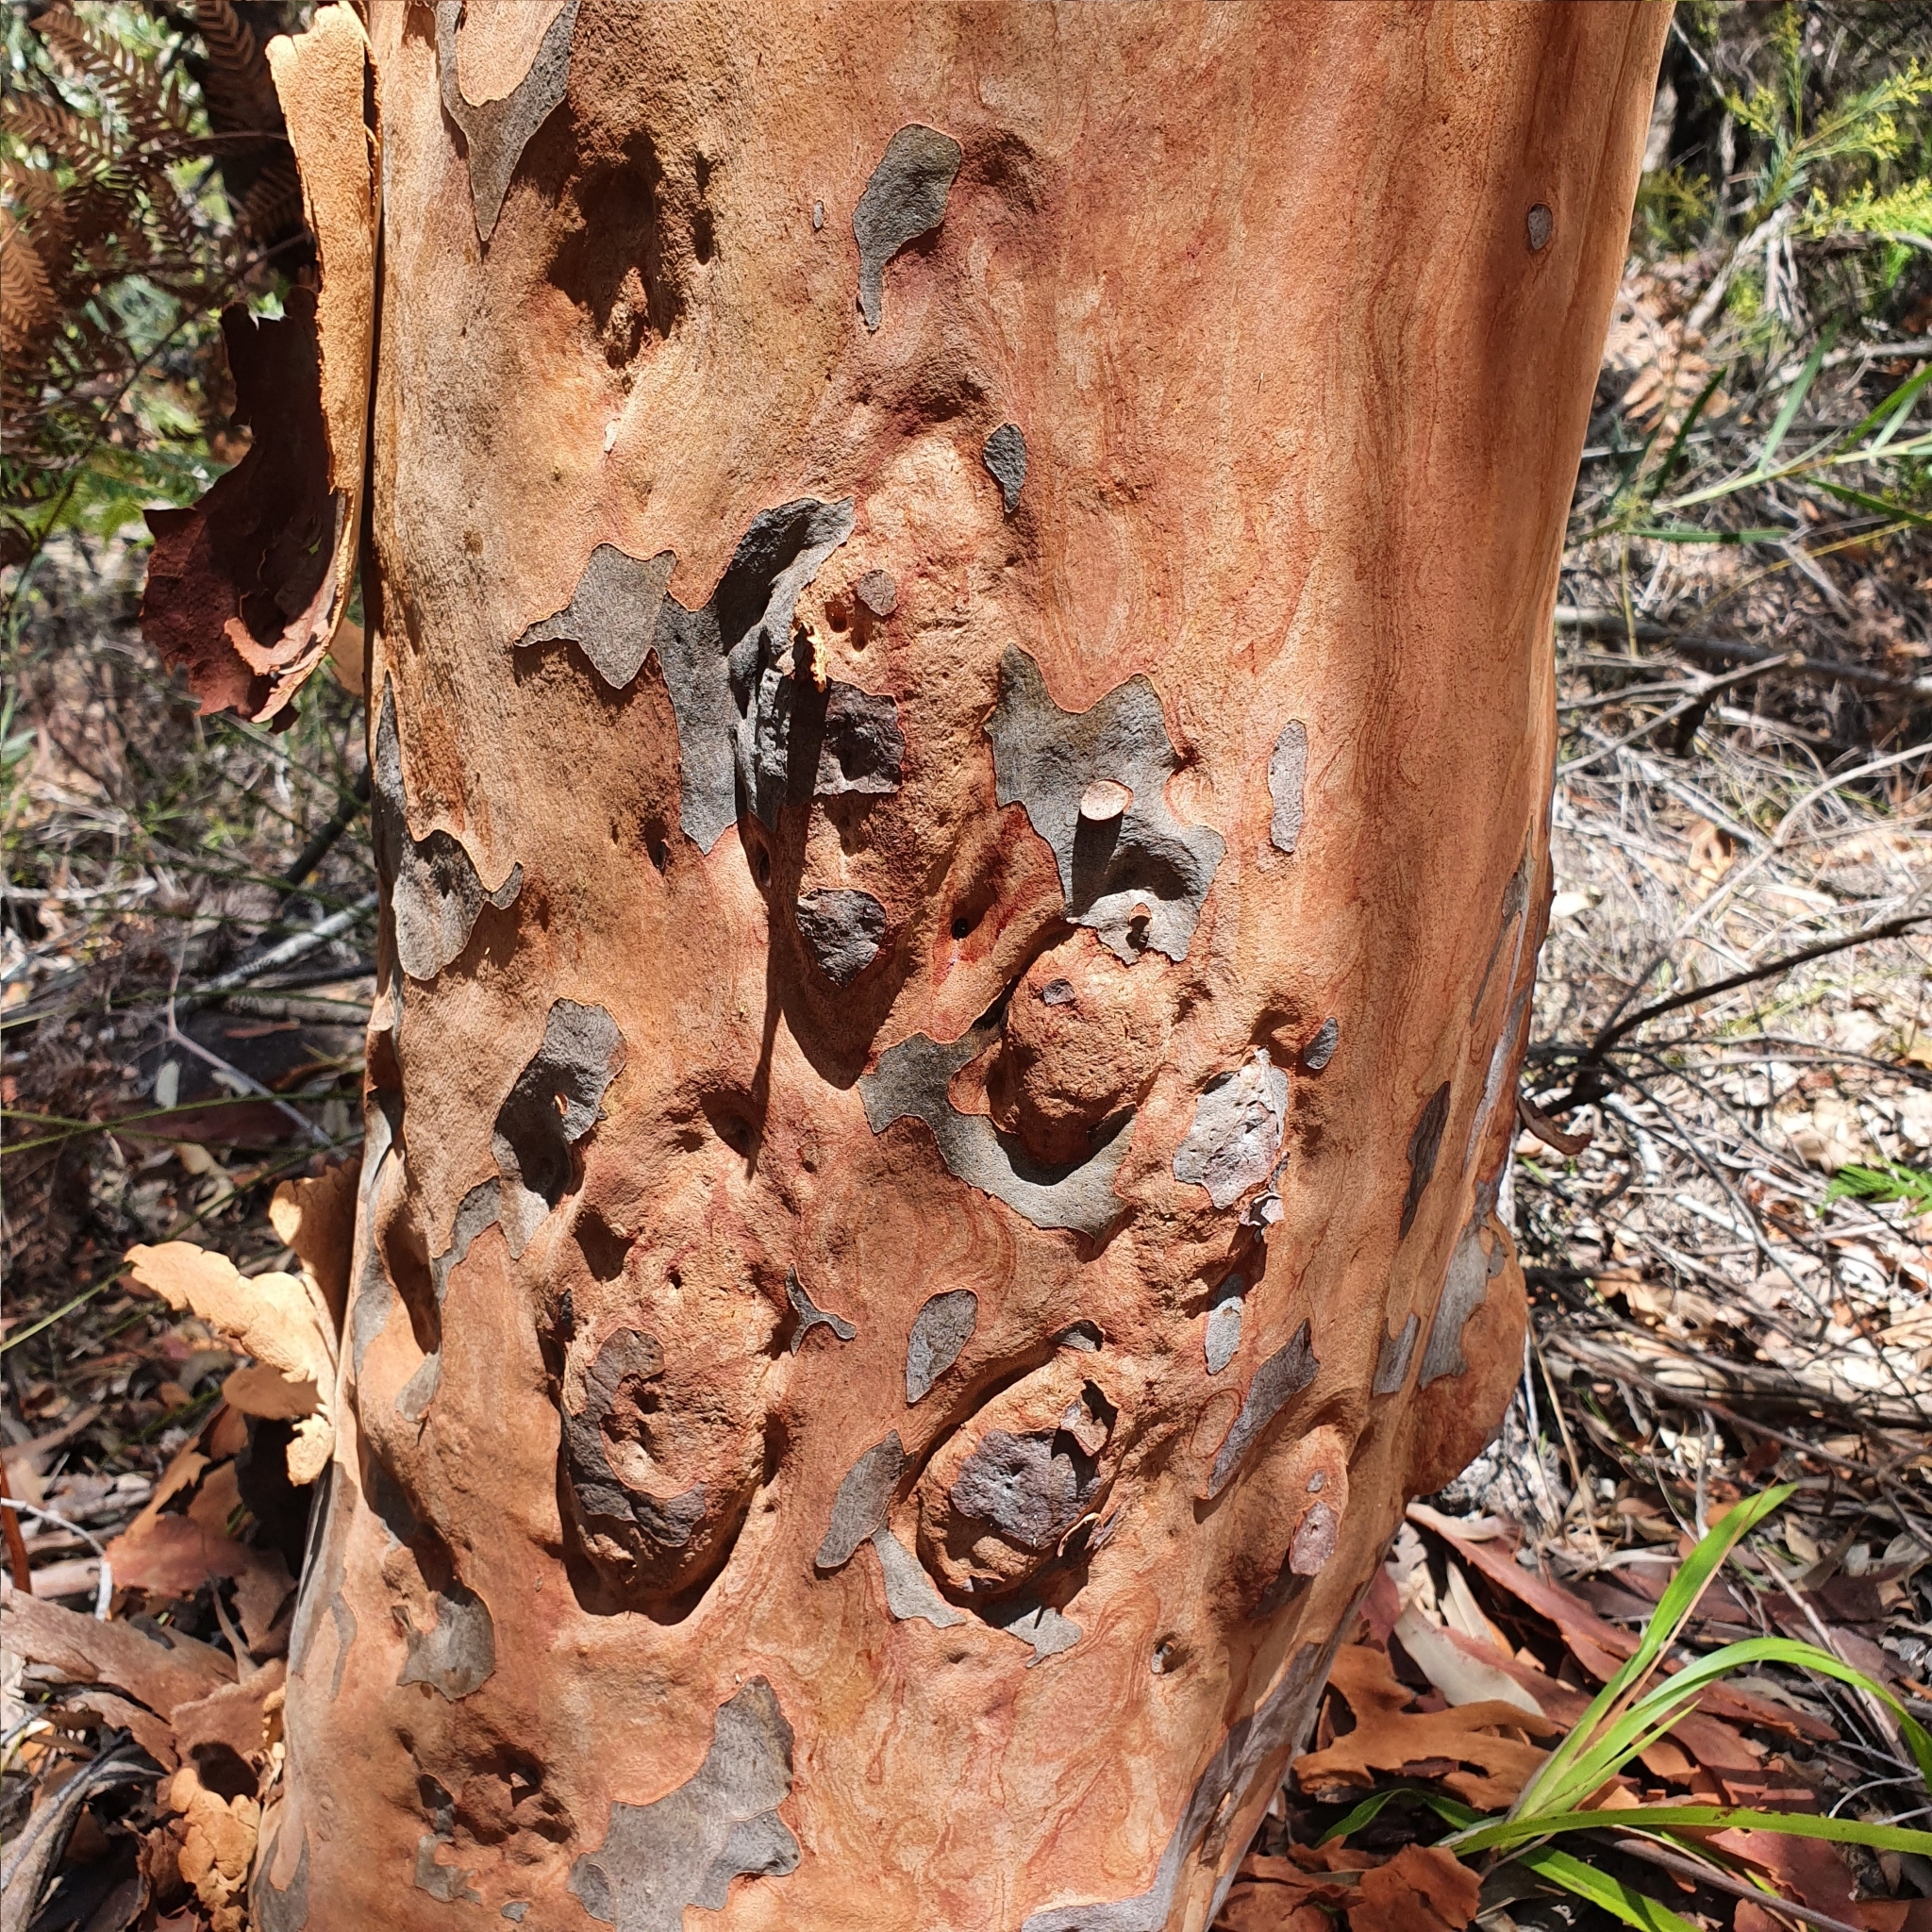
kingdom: Plantae
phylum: Tracheophyta
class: Magnoliopsida
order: Myrtales
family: Myrtaceae
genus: Angophora
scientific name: Angophora costata
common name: Gum myrtle
